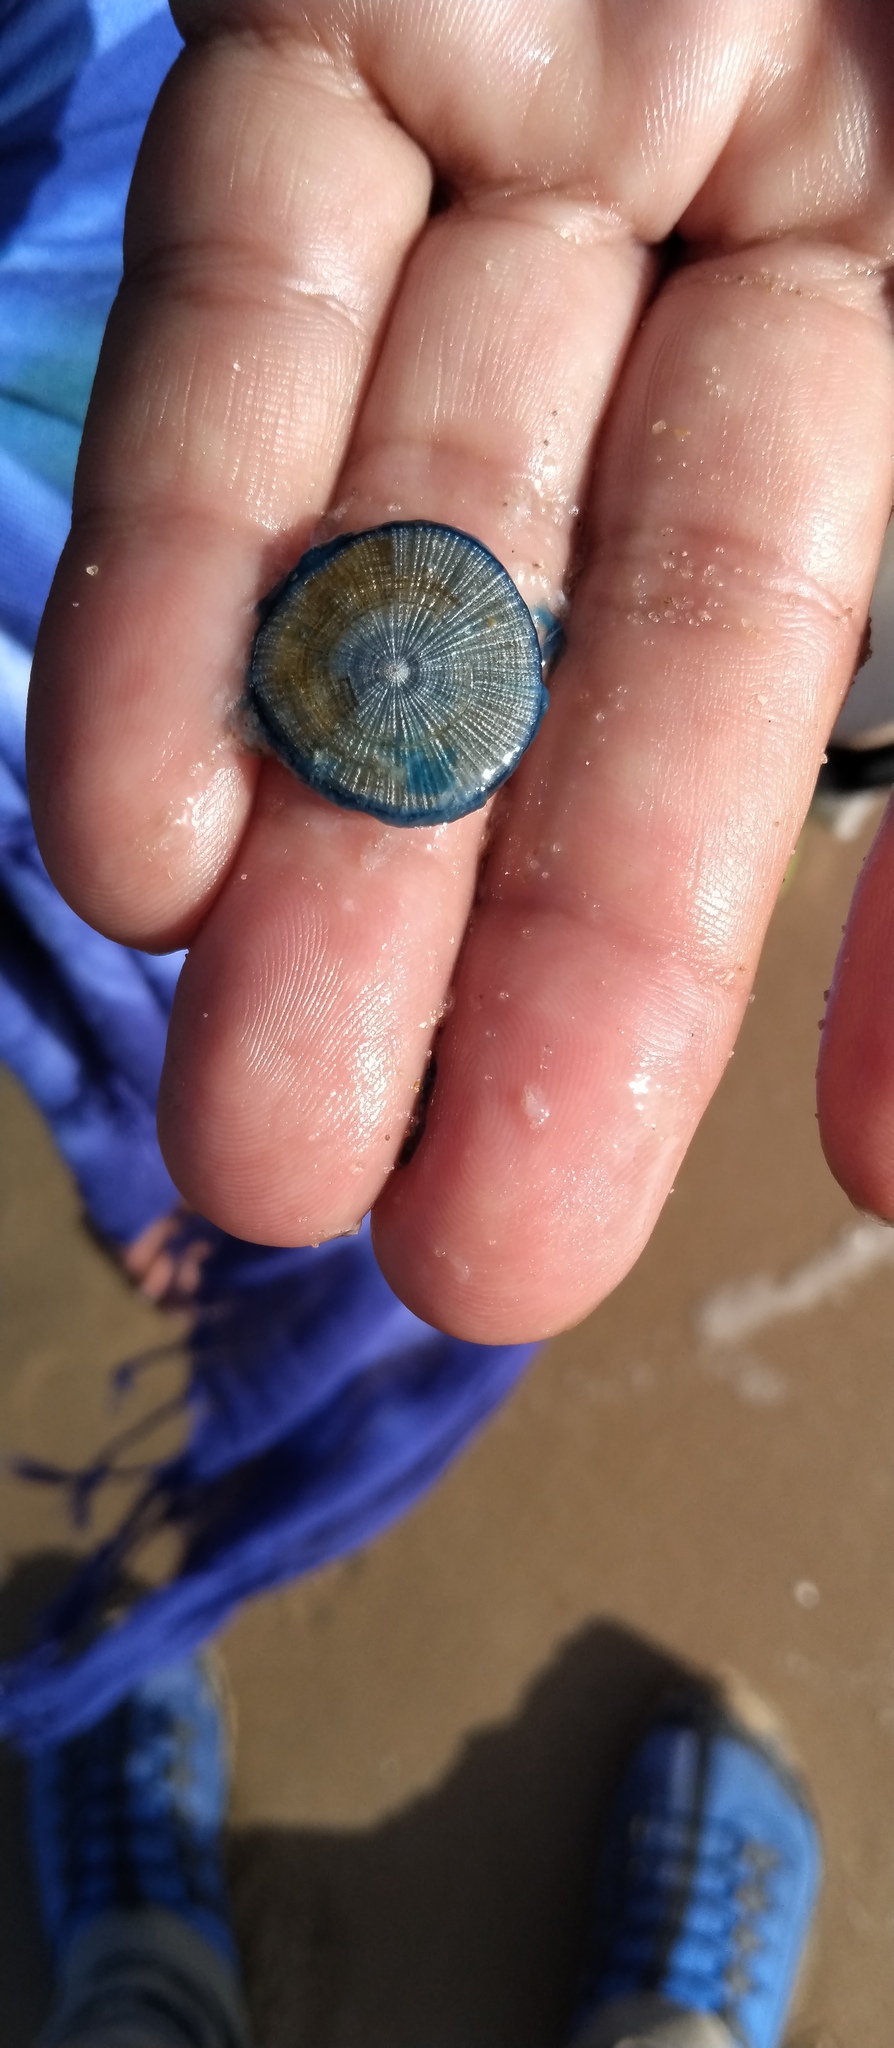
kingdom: Animalia
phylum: Cnidaria
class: Hydrozoa
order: Anthoathecata
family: Porpitidae
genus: Porpita
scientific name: Porpita porpita
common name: Blue button
